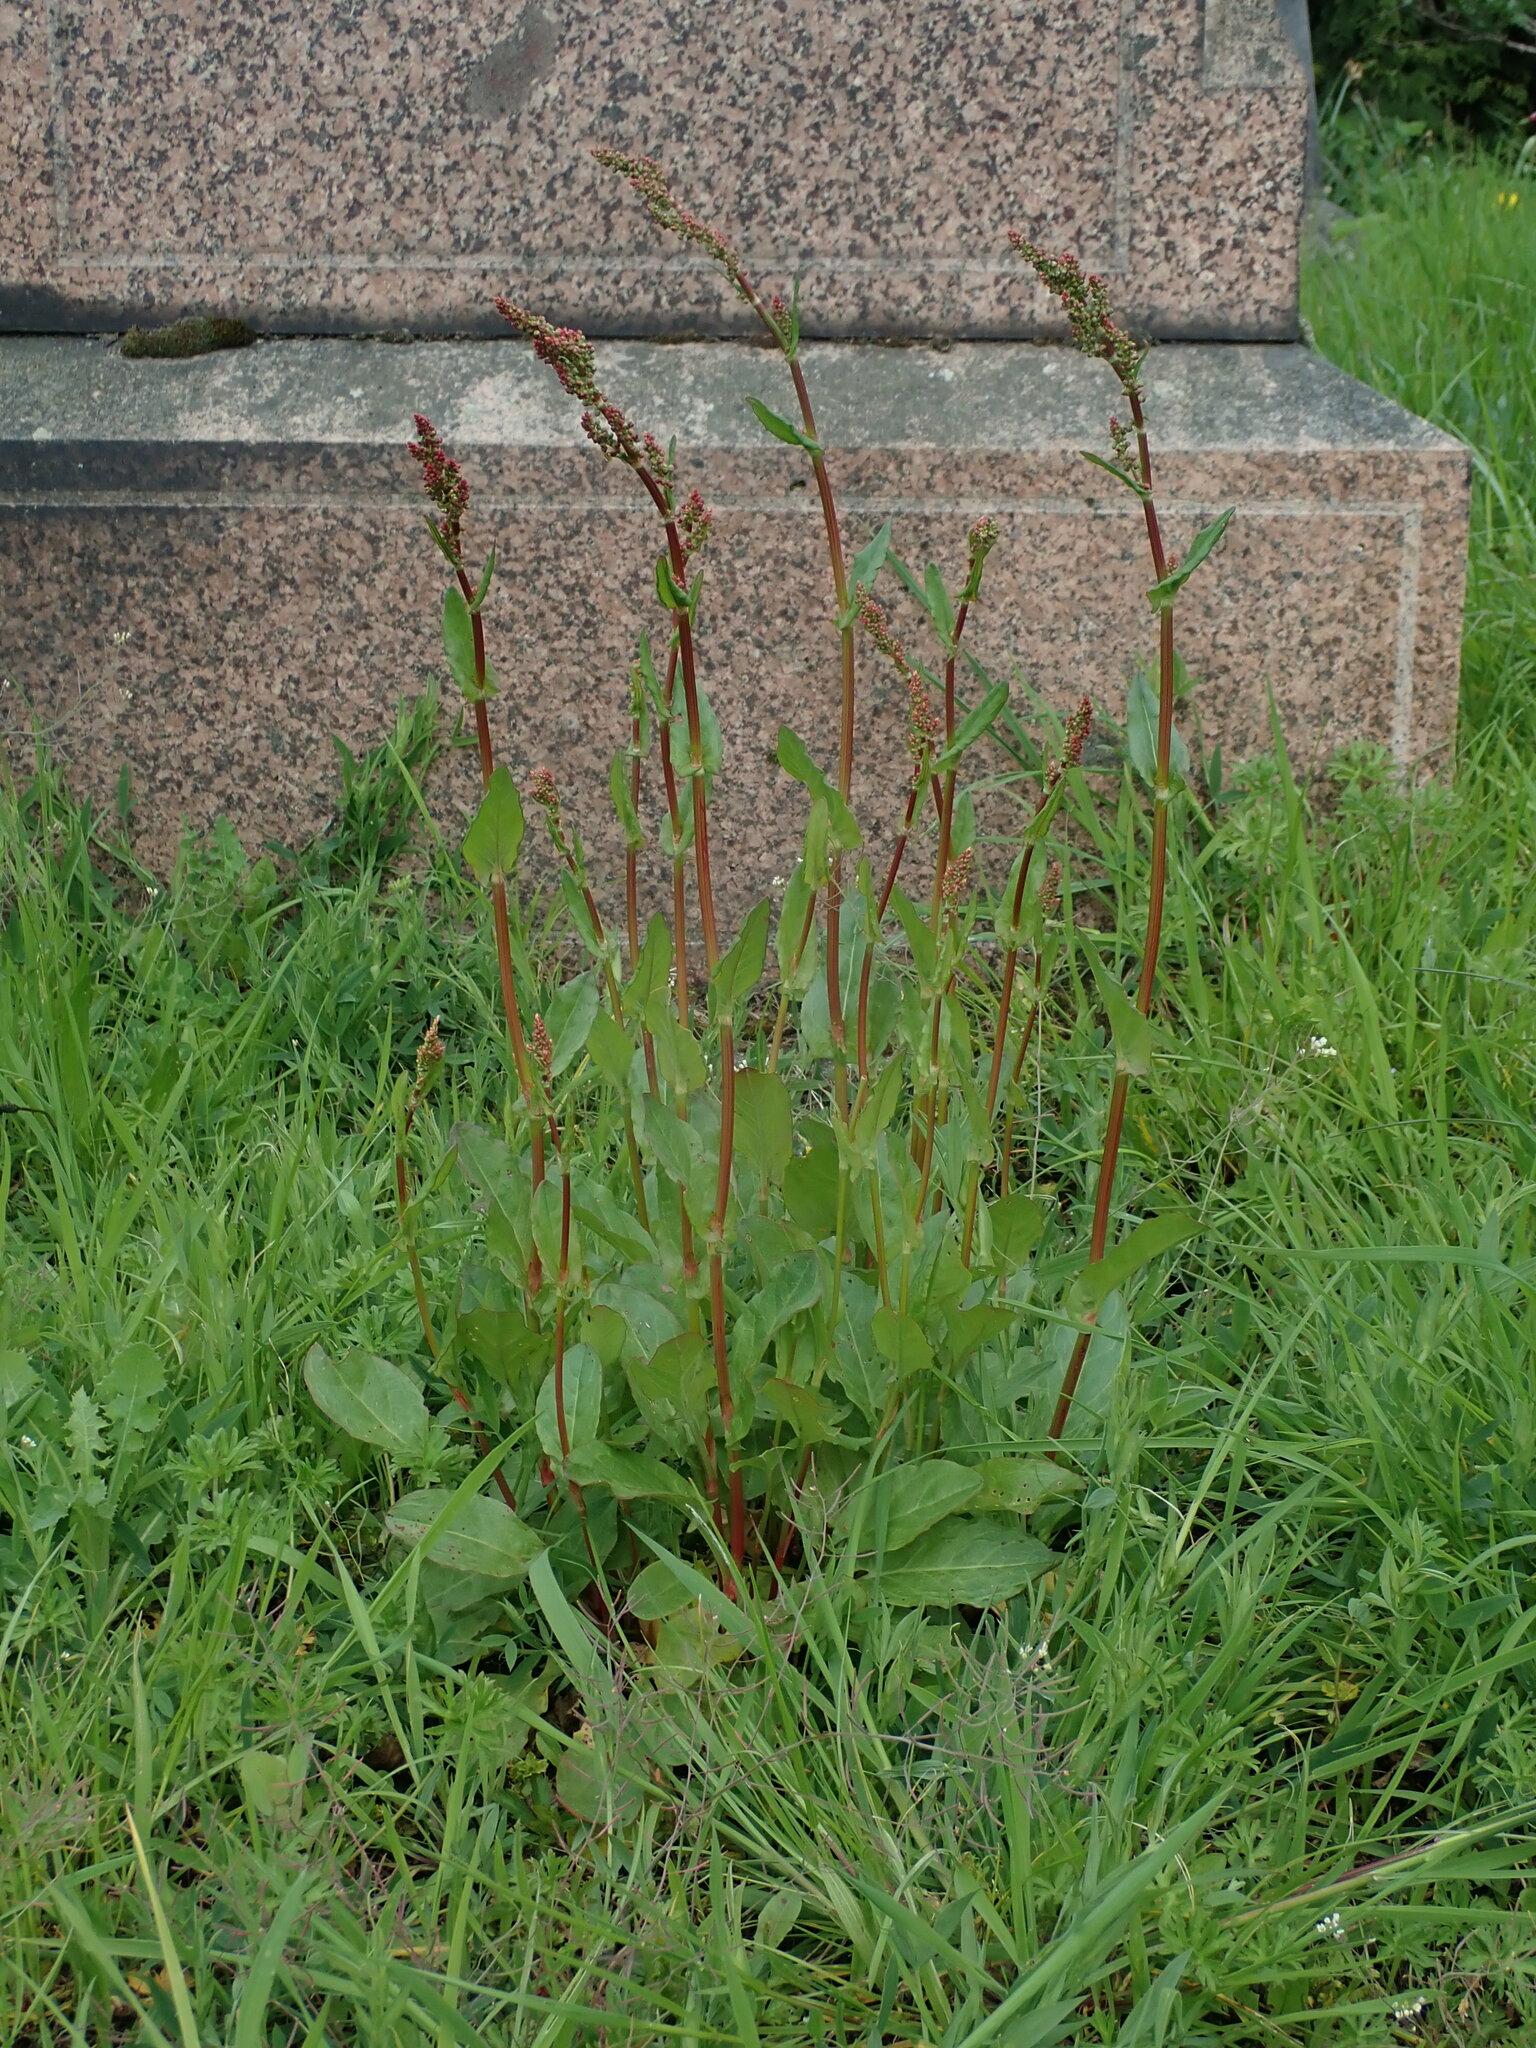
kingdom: Plantae
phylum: Tracheophyta
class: Magnoliopsida
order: Caryophyllales
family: Polygonaceae
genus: Rumex
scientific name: Rumex acetosa
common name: Garden sorrel
